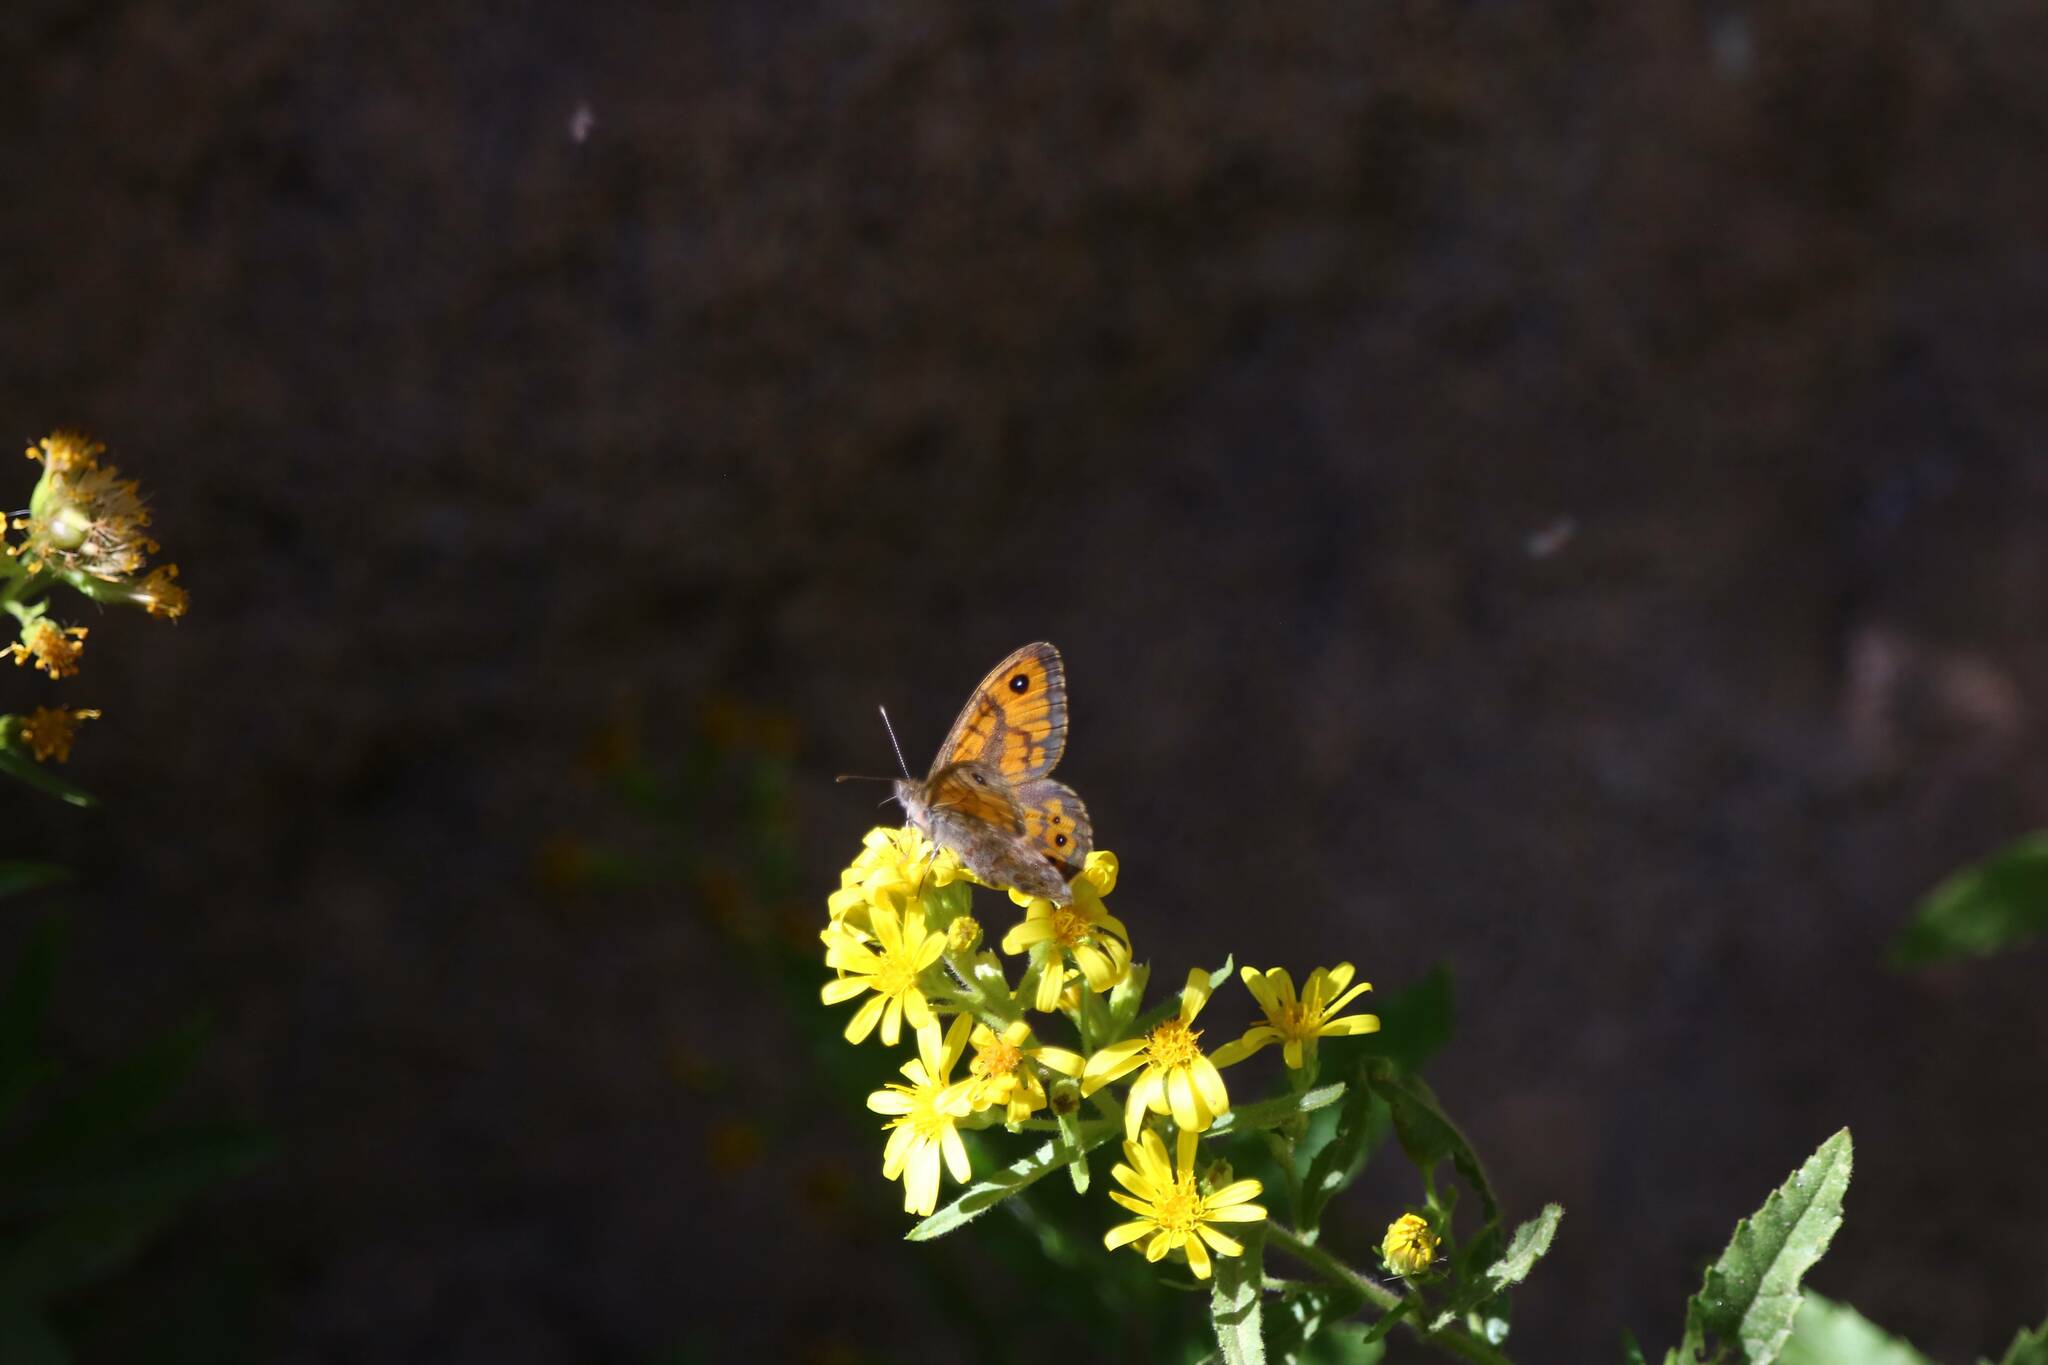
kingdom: Animalia
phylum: Arthropoda
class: Insecta
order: Lepidoptera
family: Nymphalidae
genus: Pararge
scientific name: Pararge Lasiommata megera
